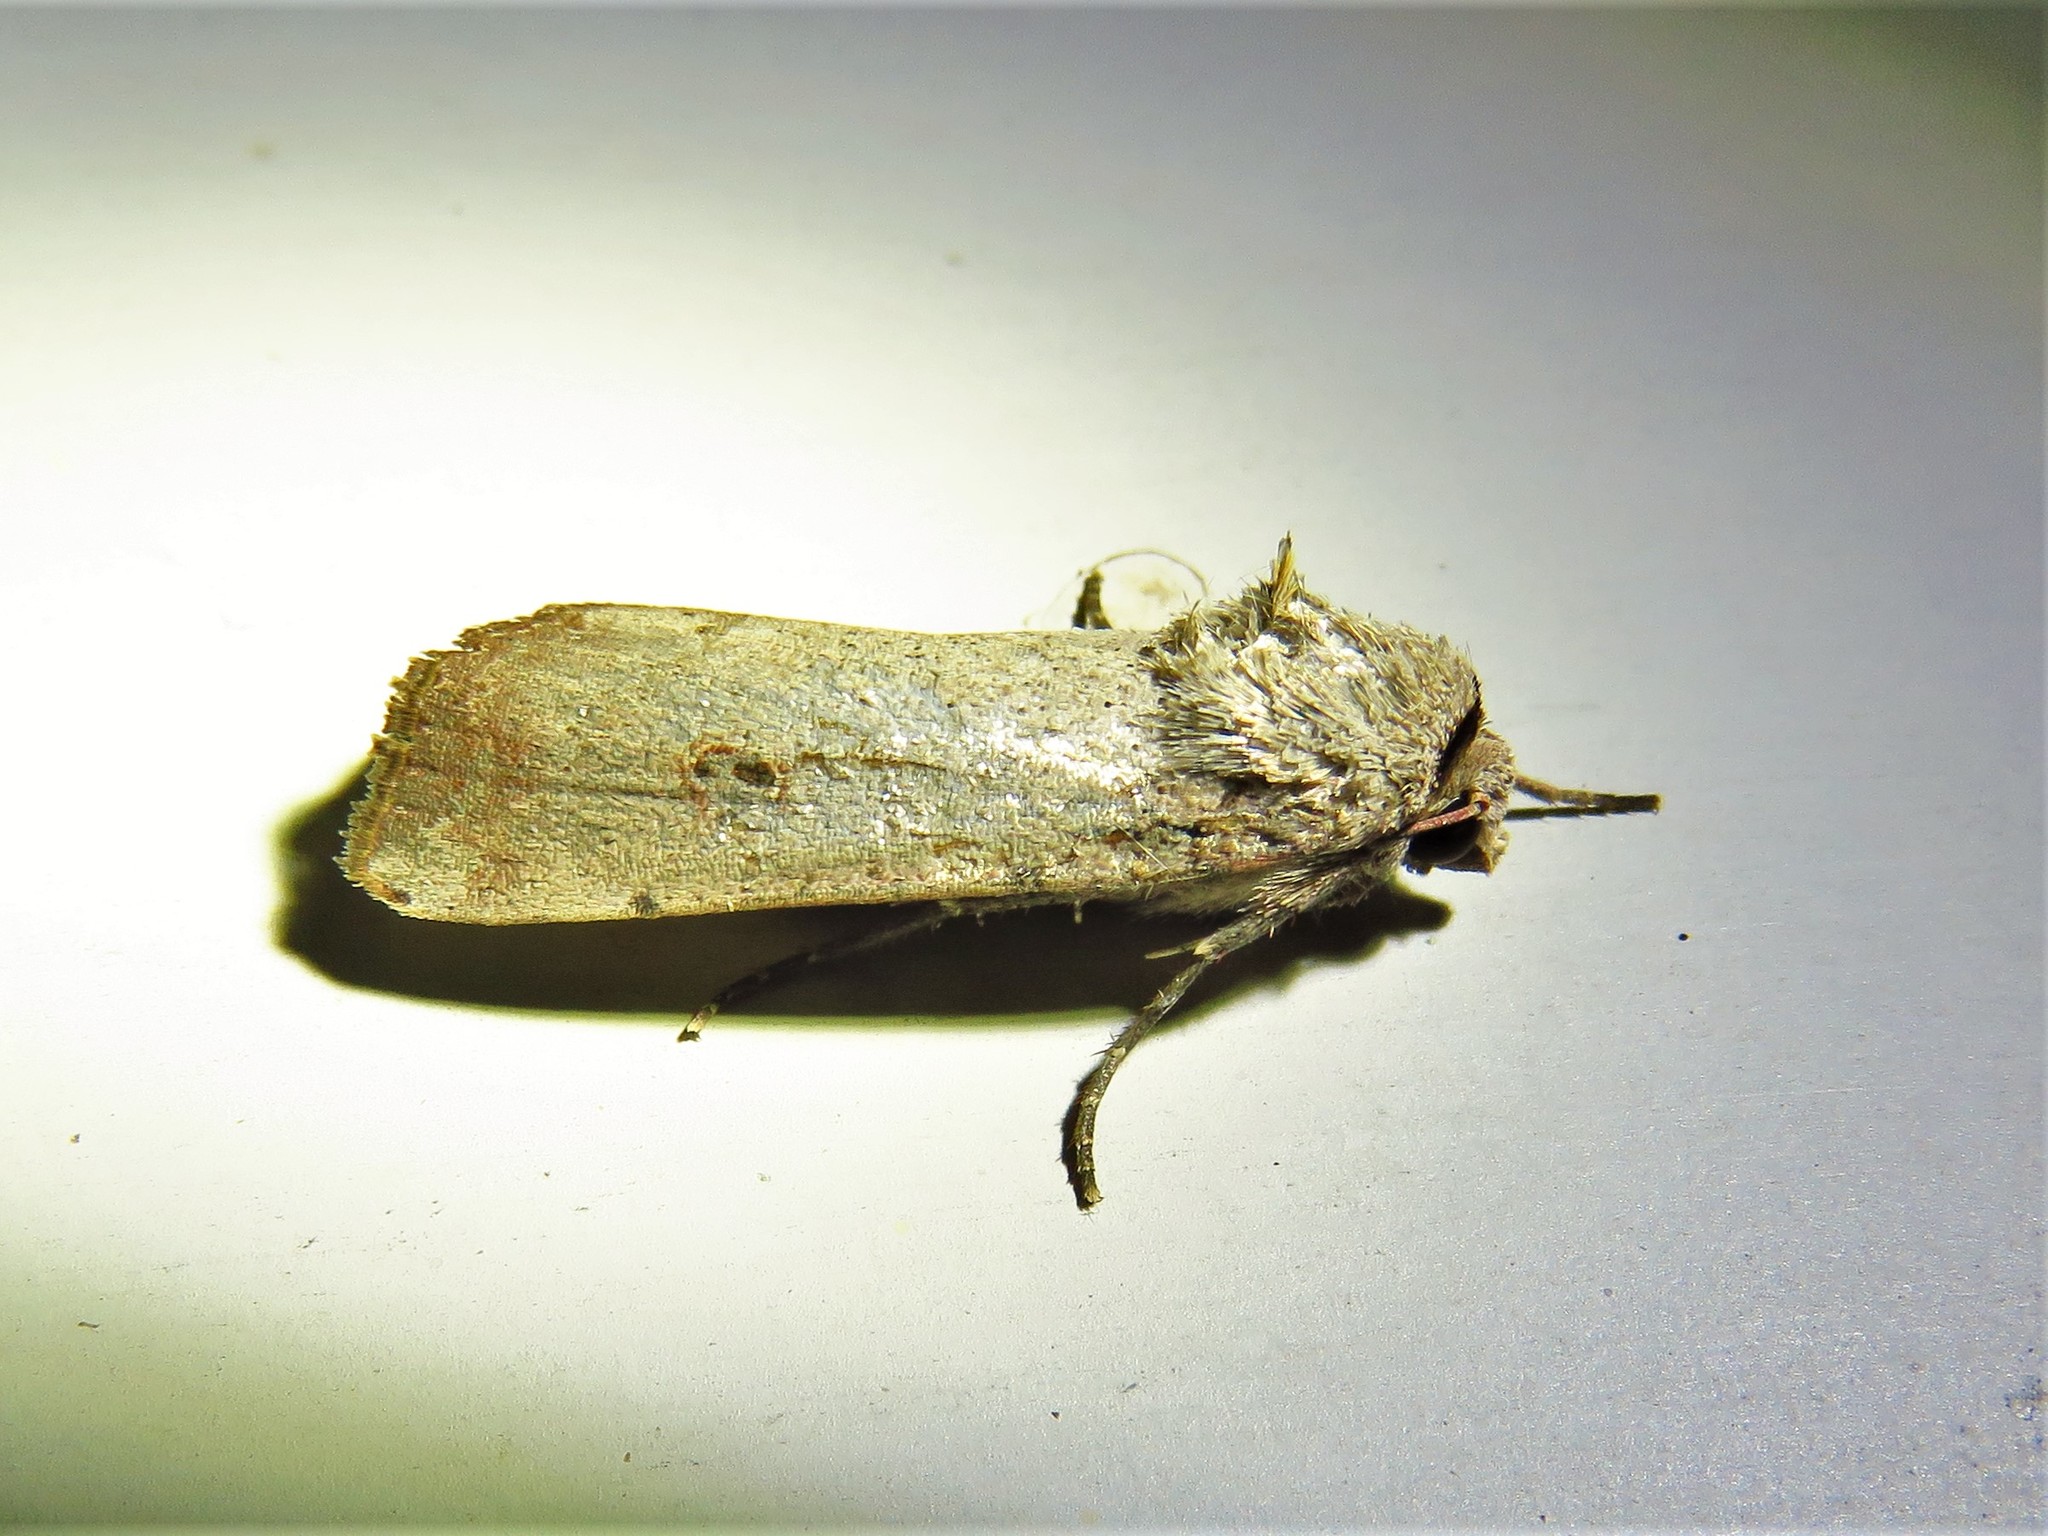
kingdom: Animalia
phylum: Arthropoda
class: Insecta
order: Lepidoptera
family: Noctuidae
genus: Anicla
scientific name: Anicla infecta
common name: Green cutworm
